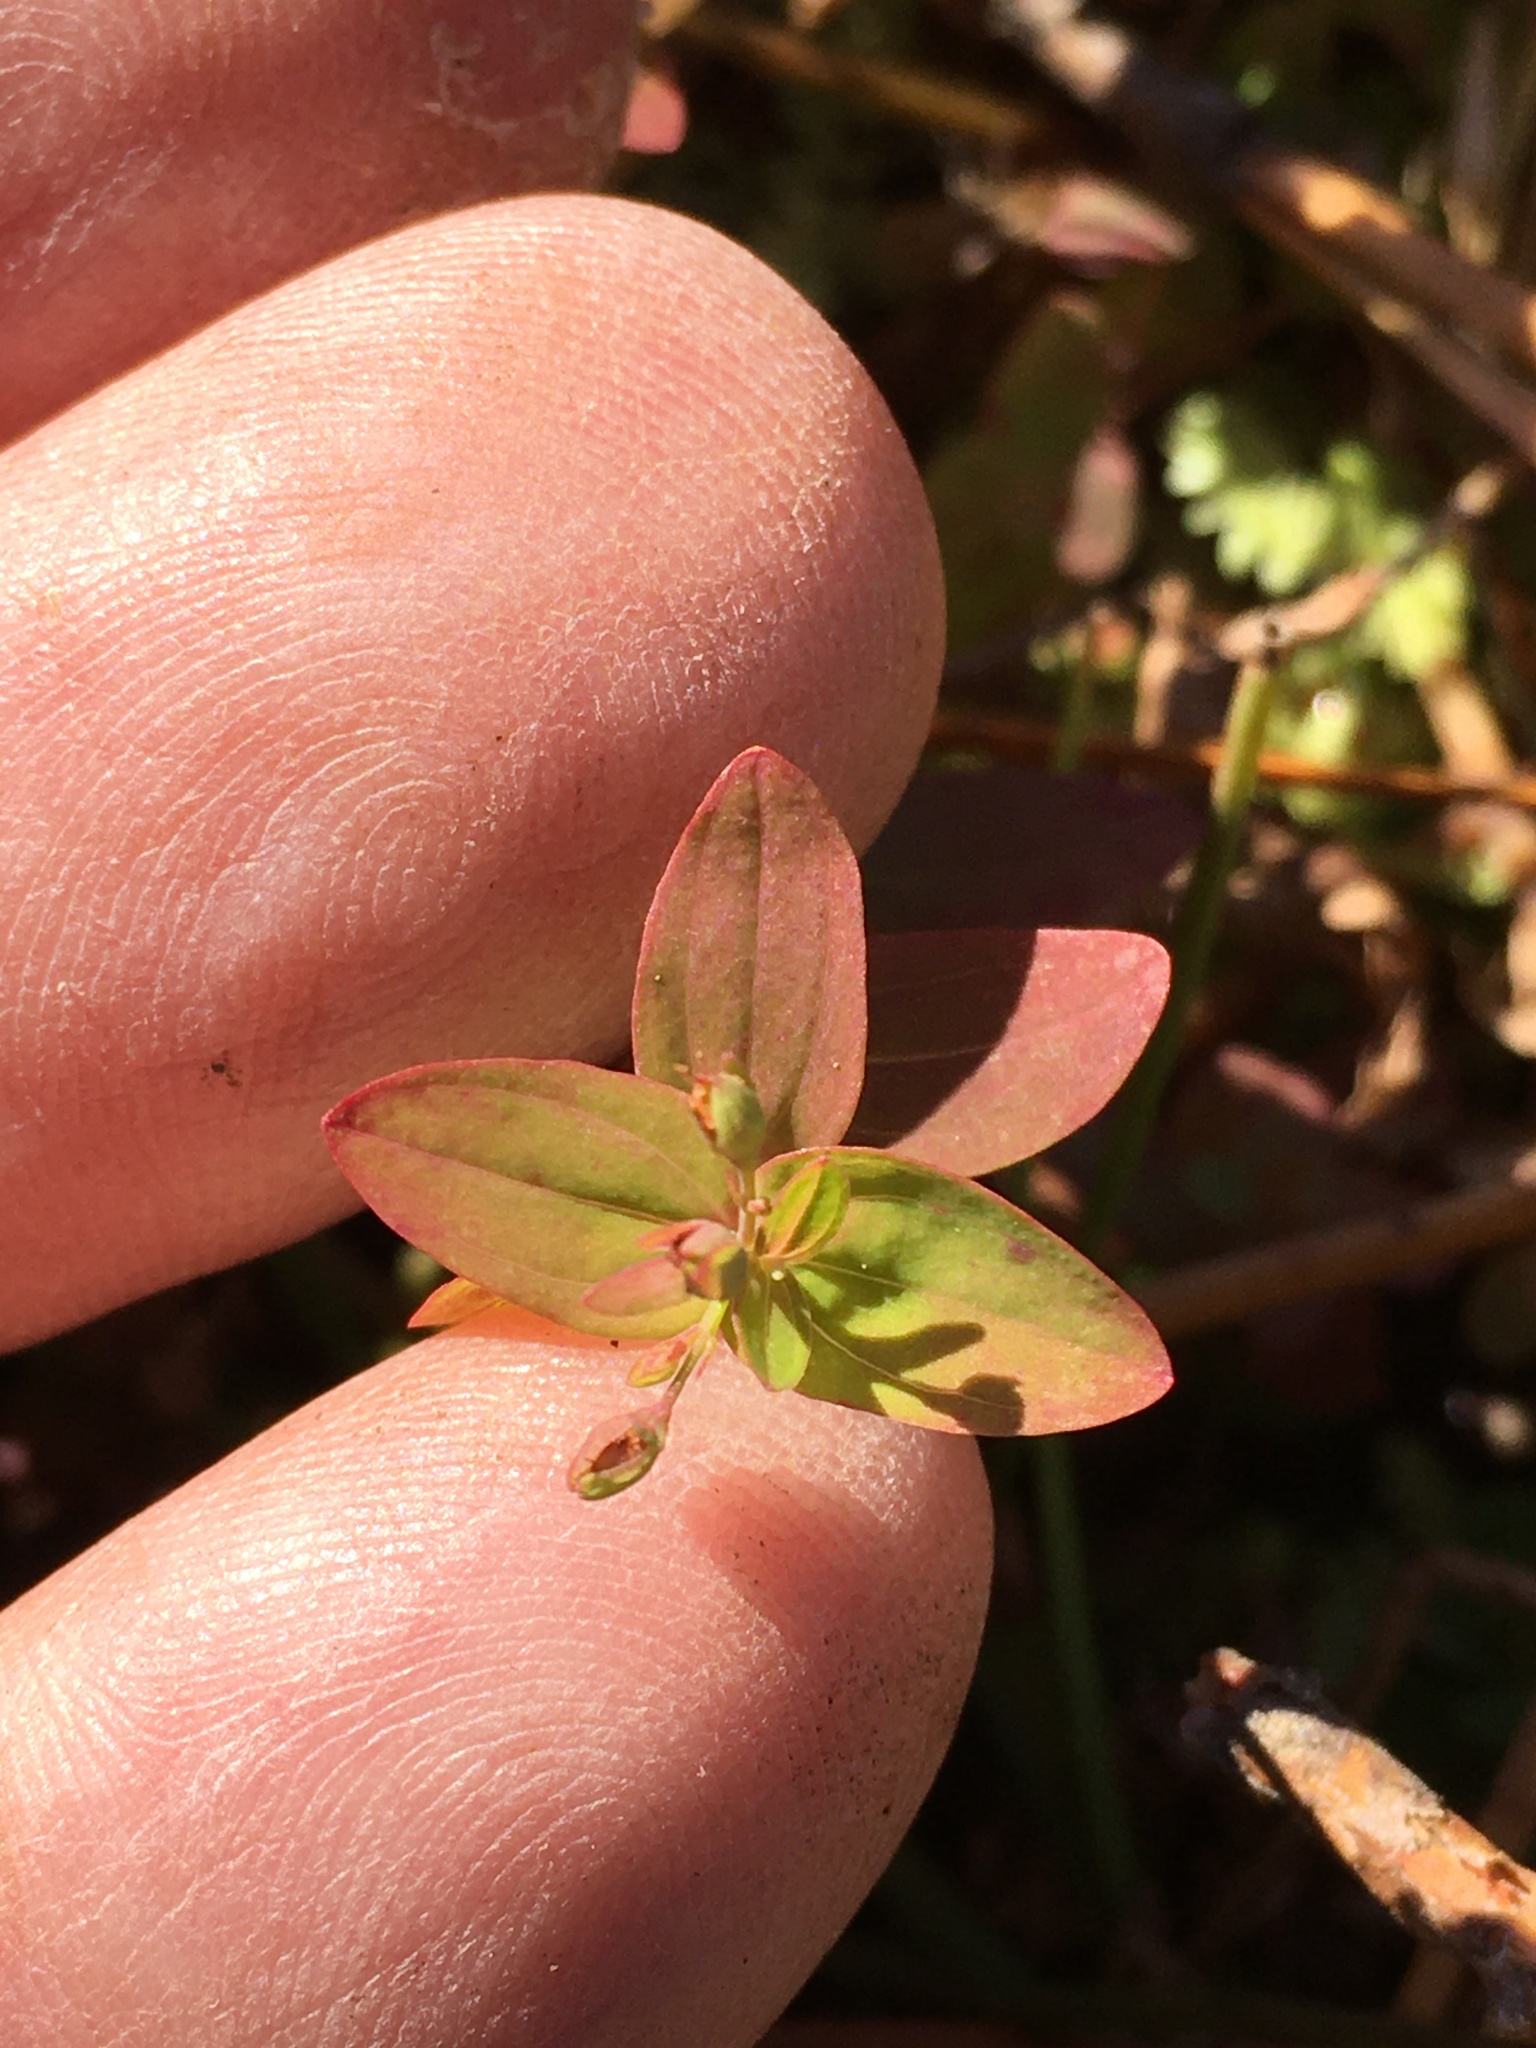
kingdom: Plantae
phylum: Tracheophyta
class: Magnoliopsida
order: Malpighiales
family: Hypericaceae
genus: Hypericum
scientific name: Hypericum mutilum
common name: Dwarf st. john's-wort
